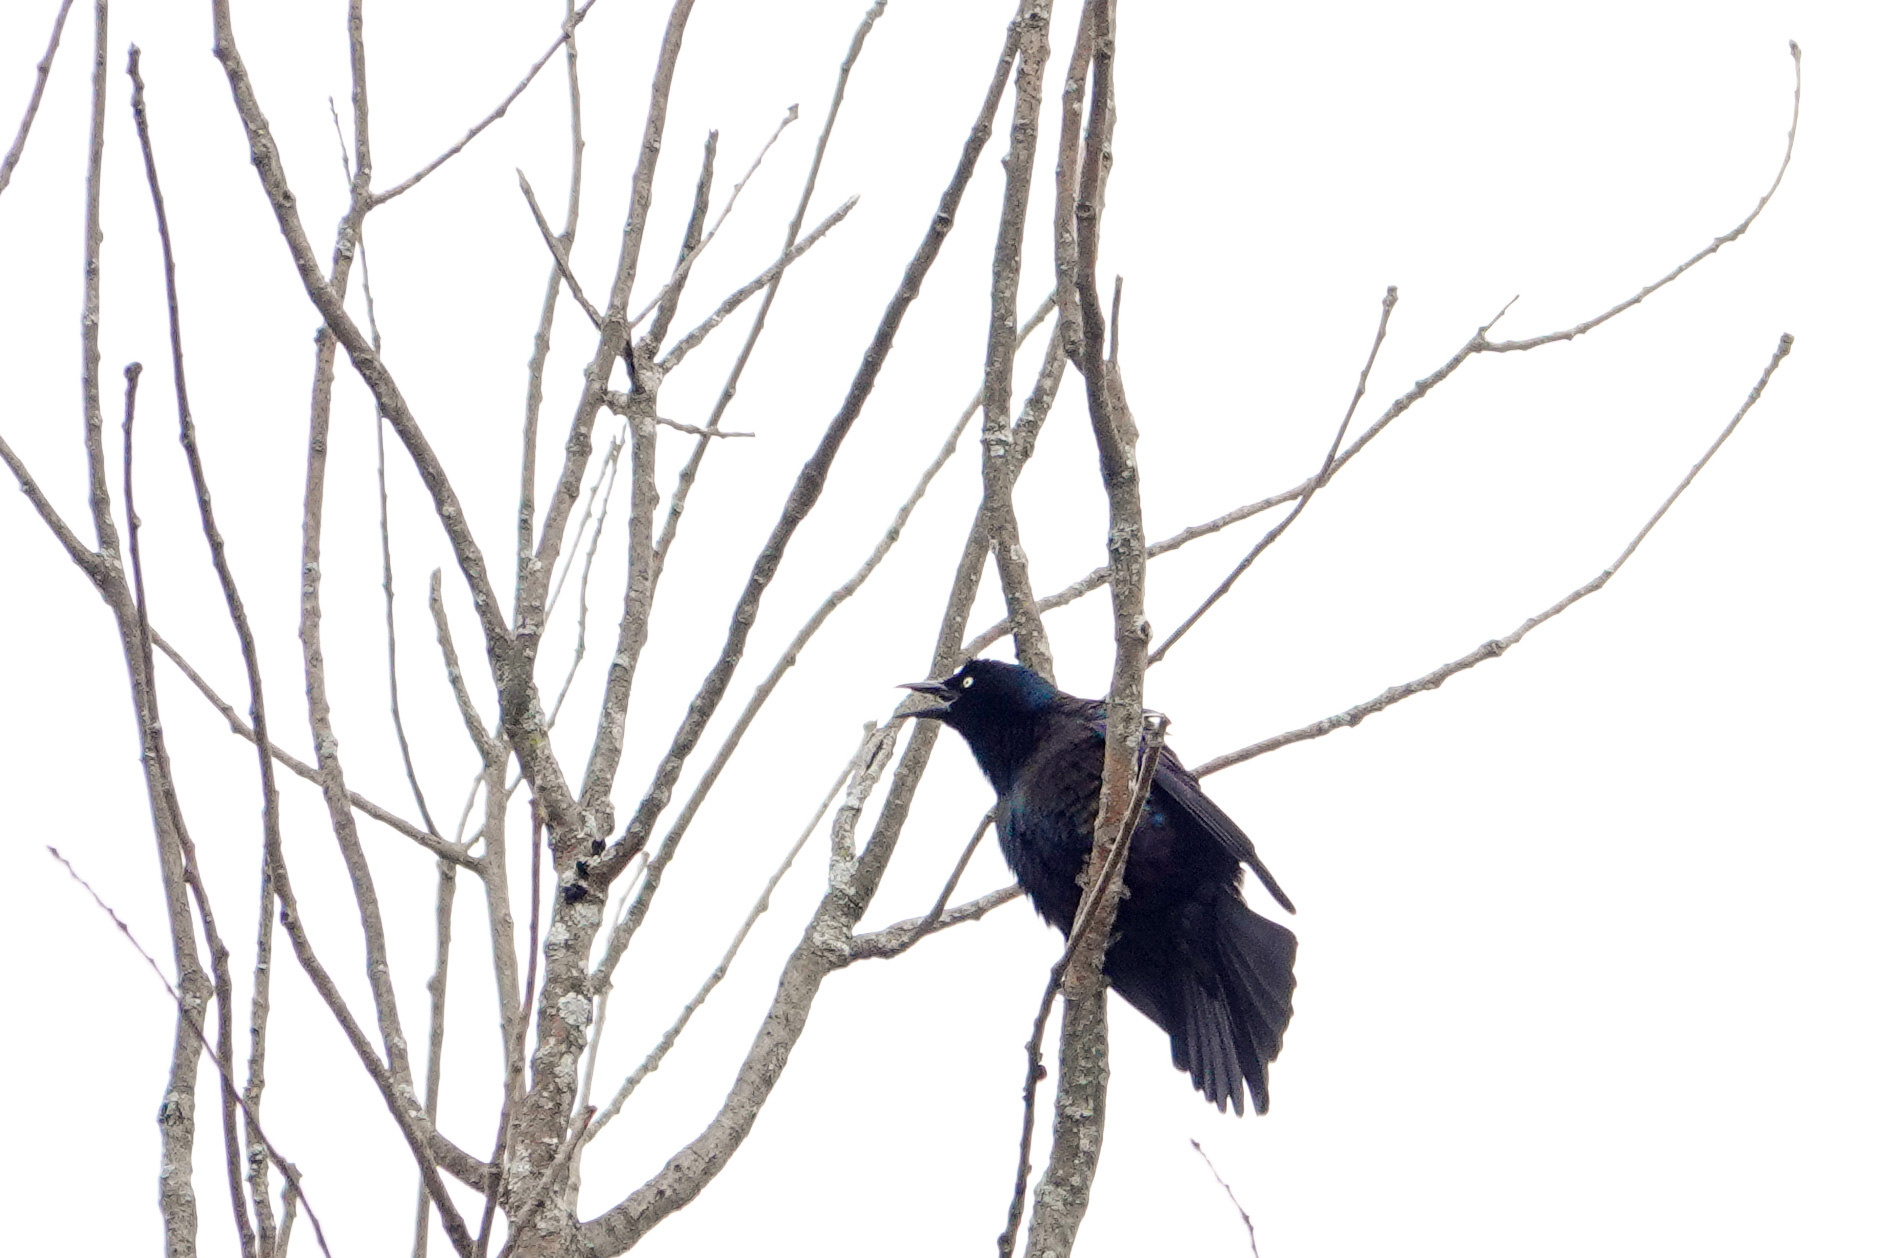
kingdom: Animalia
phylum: Chordata
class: Aves
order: Passeriformes
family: Icteridae
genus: Quiscalus
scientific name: Quiscalus quiscula
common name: Common grackle
